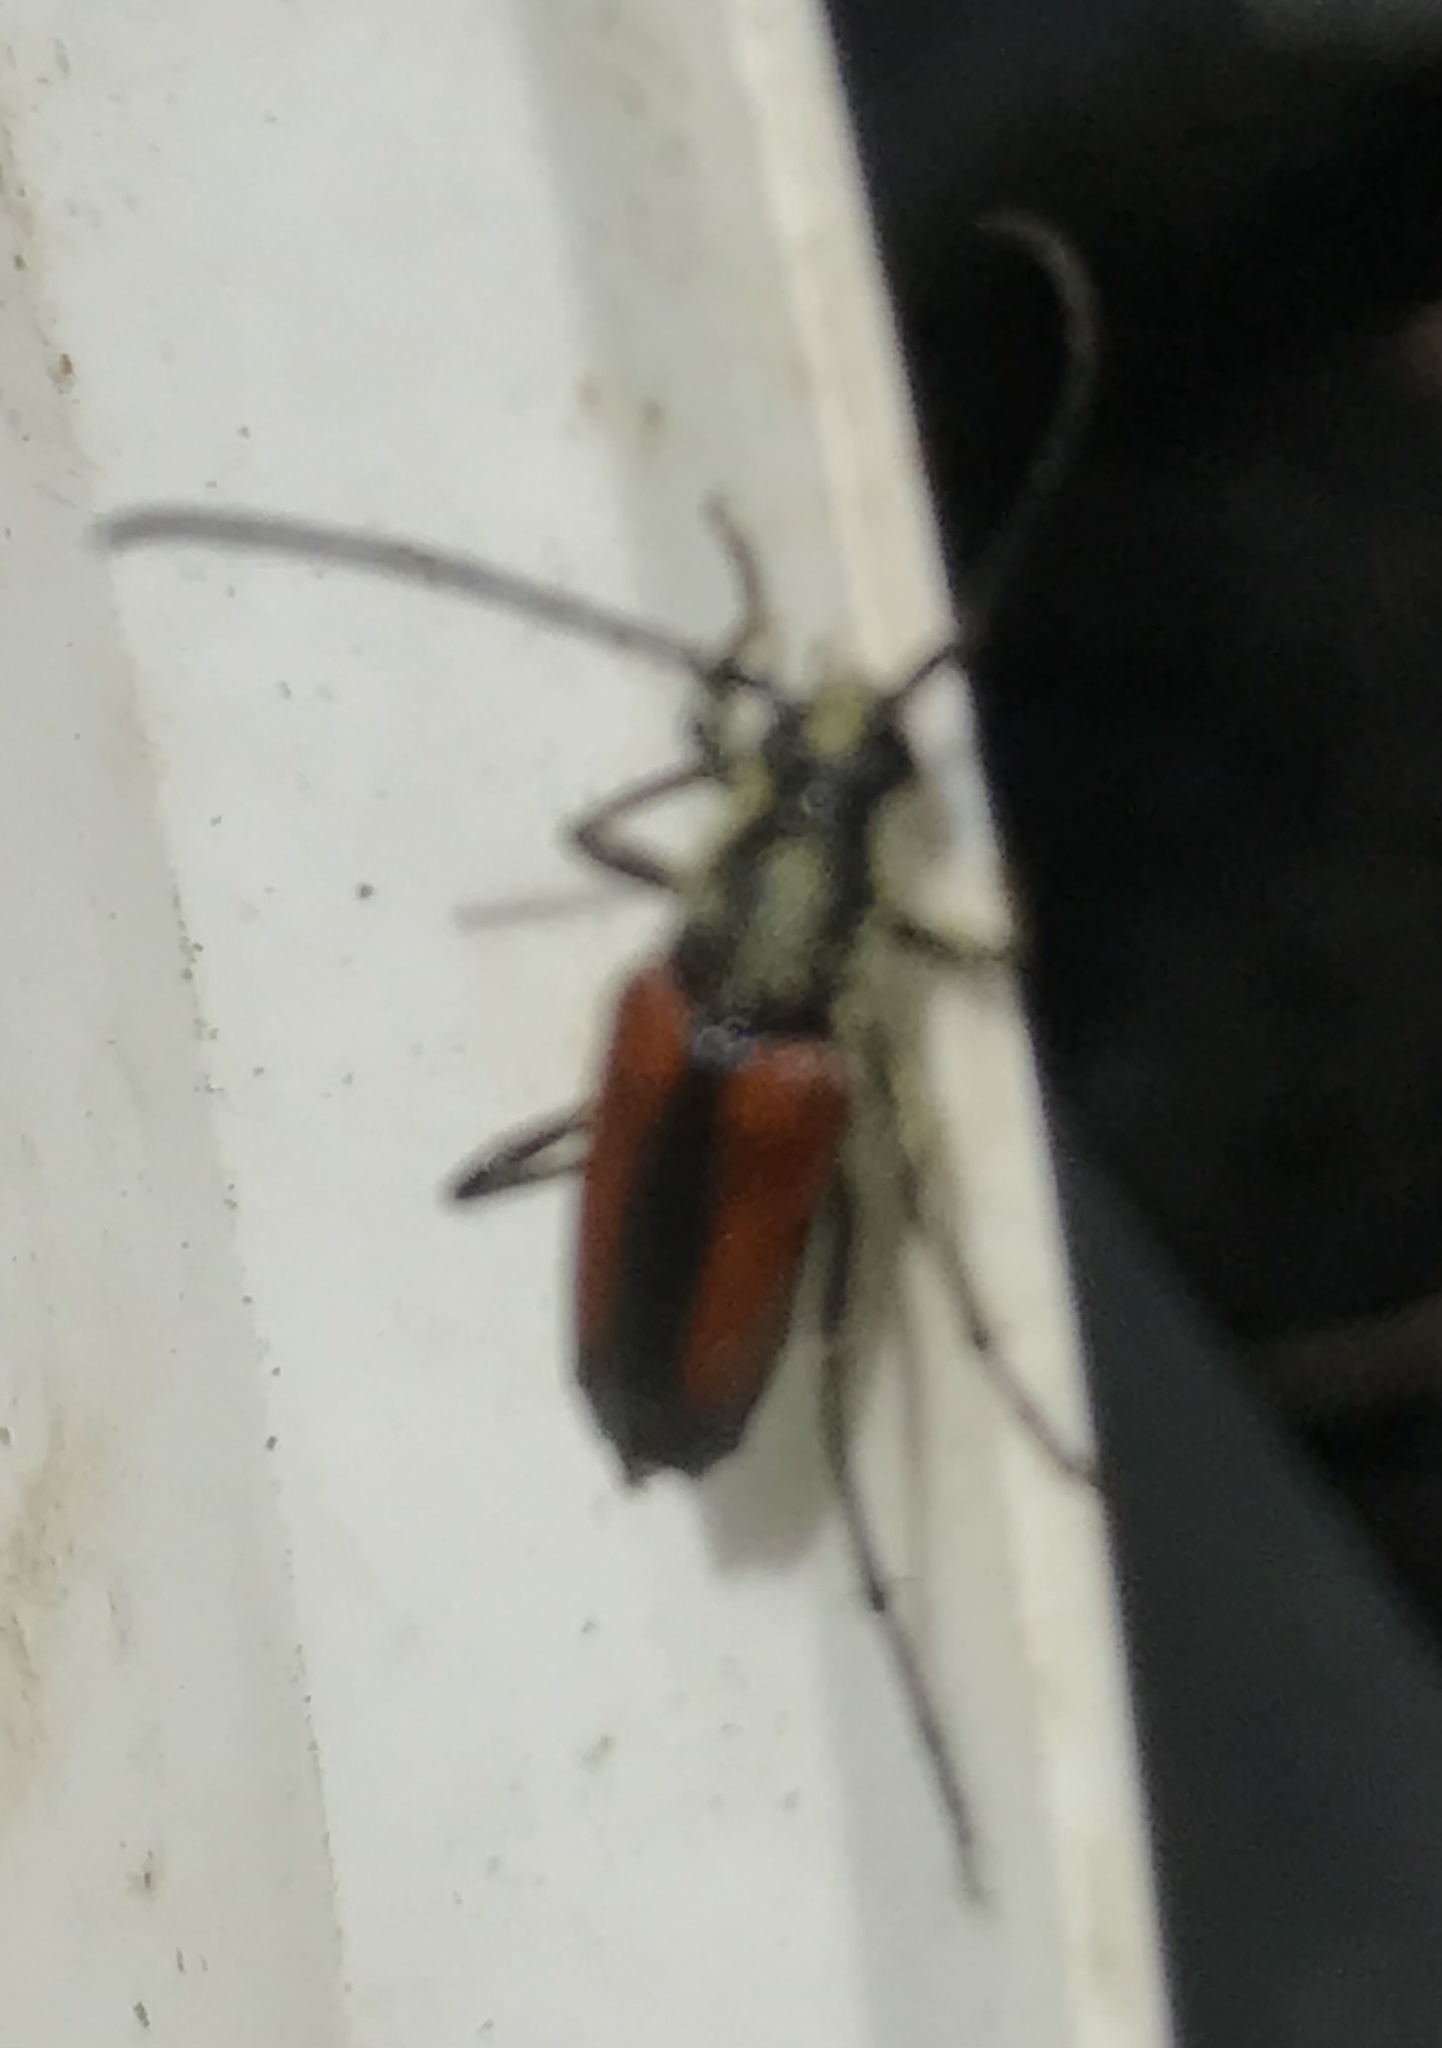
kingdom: Animalia
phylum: Arthropoda
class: Insecta
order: Coleoptera
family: Cerambycidae
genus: Stenurella
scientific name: Stenurella melanura
